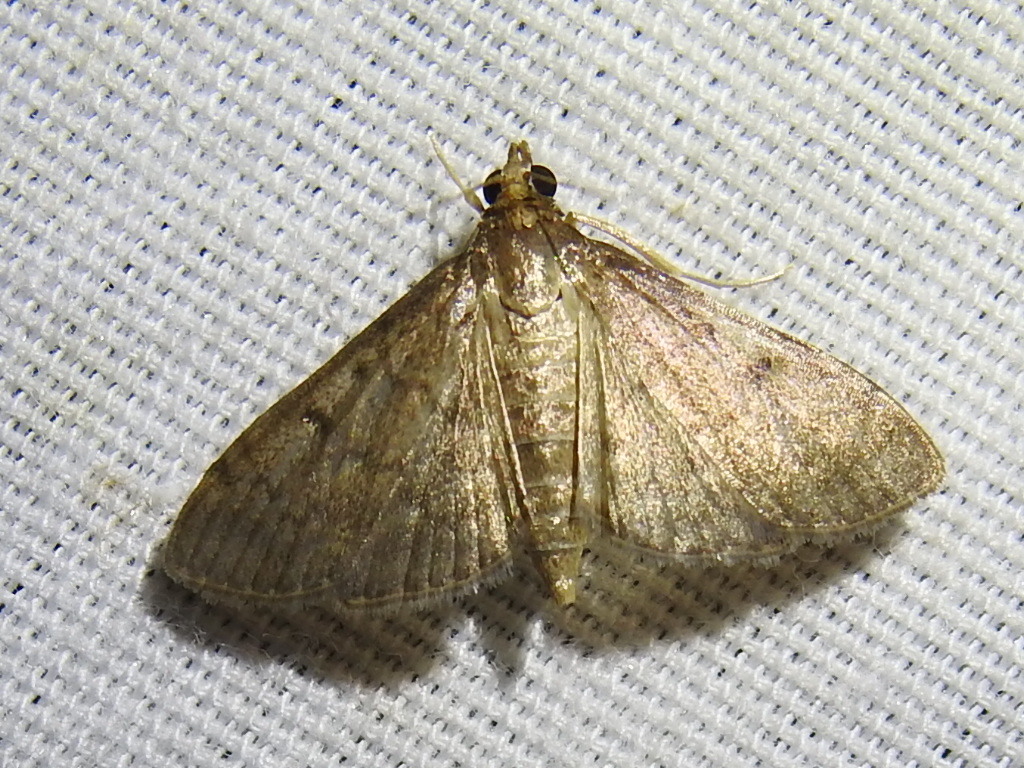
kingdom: Animalia
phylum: Arthropoda
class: Insecta
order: Lepidoptera
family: Crambidae
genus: Herpetogramma
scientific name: Herpetogramma phaeopteralis
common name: Dusky herpetogramma moth
